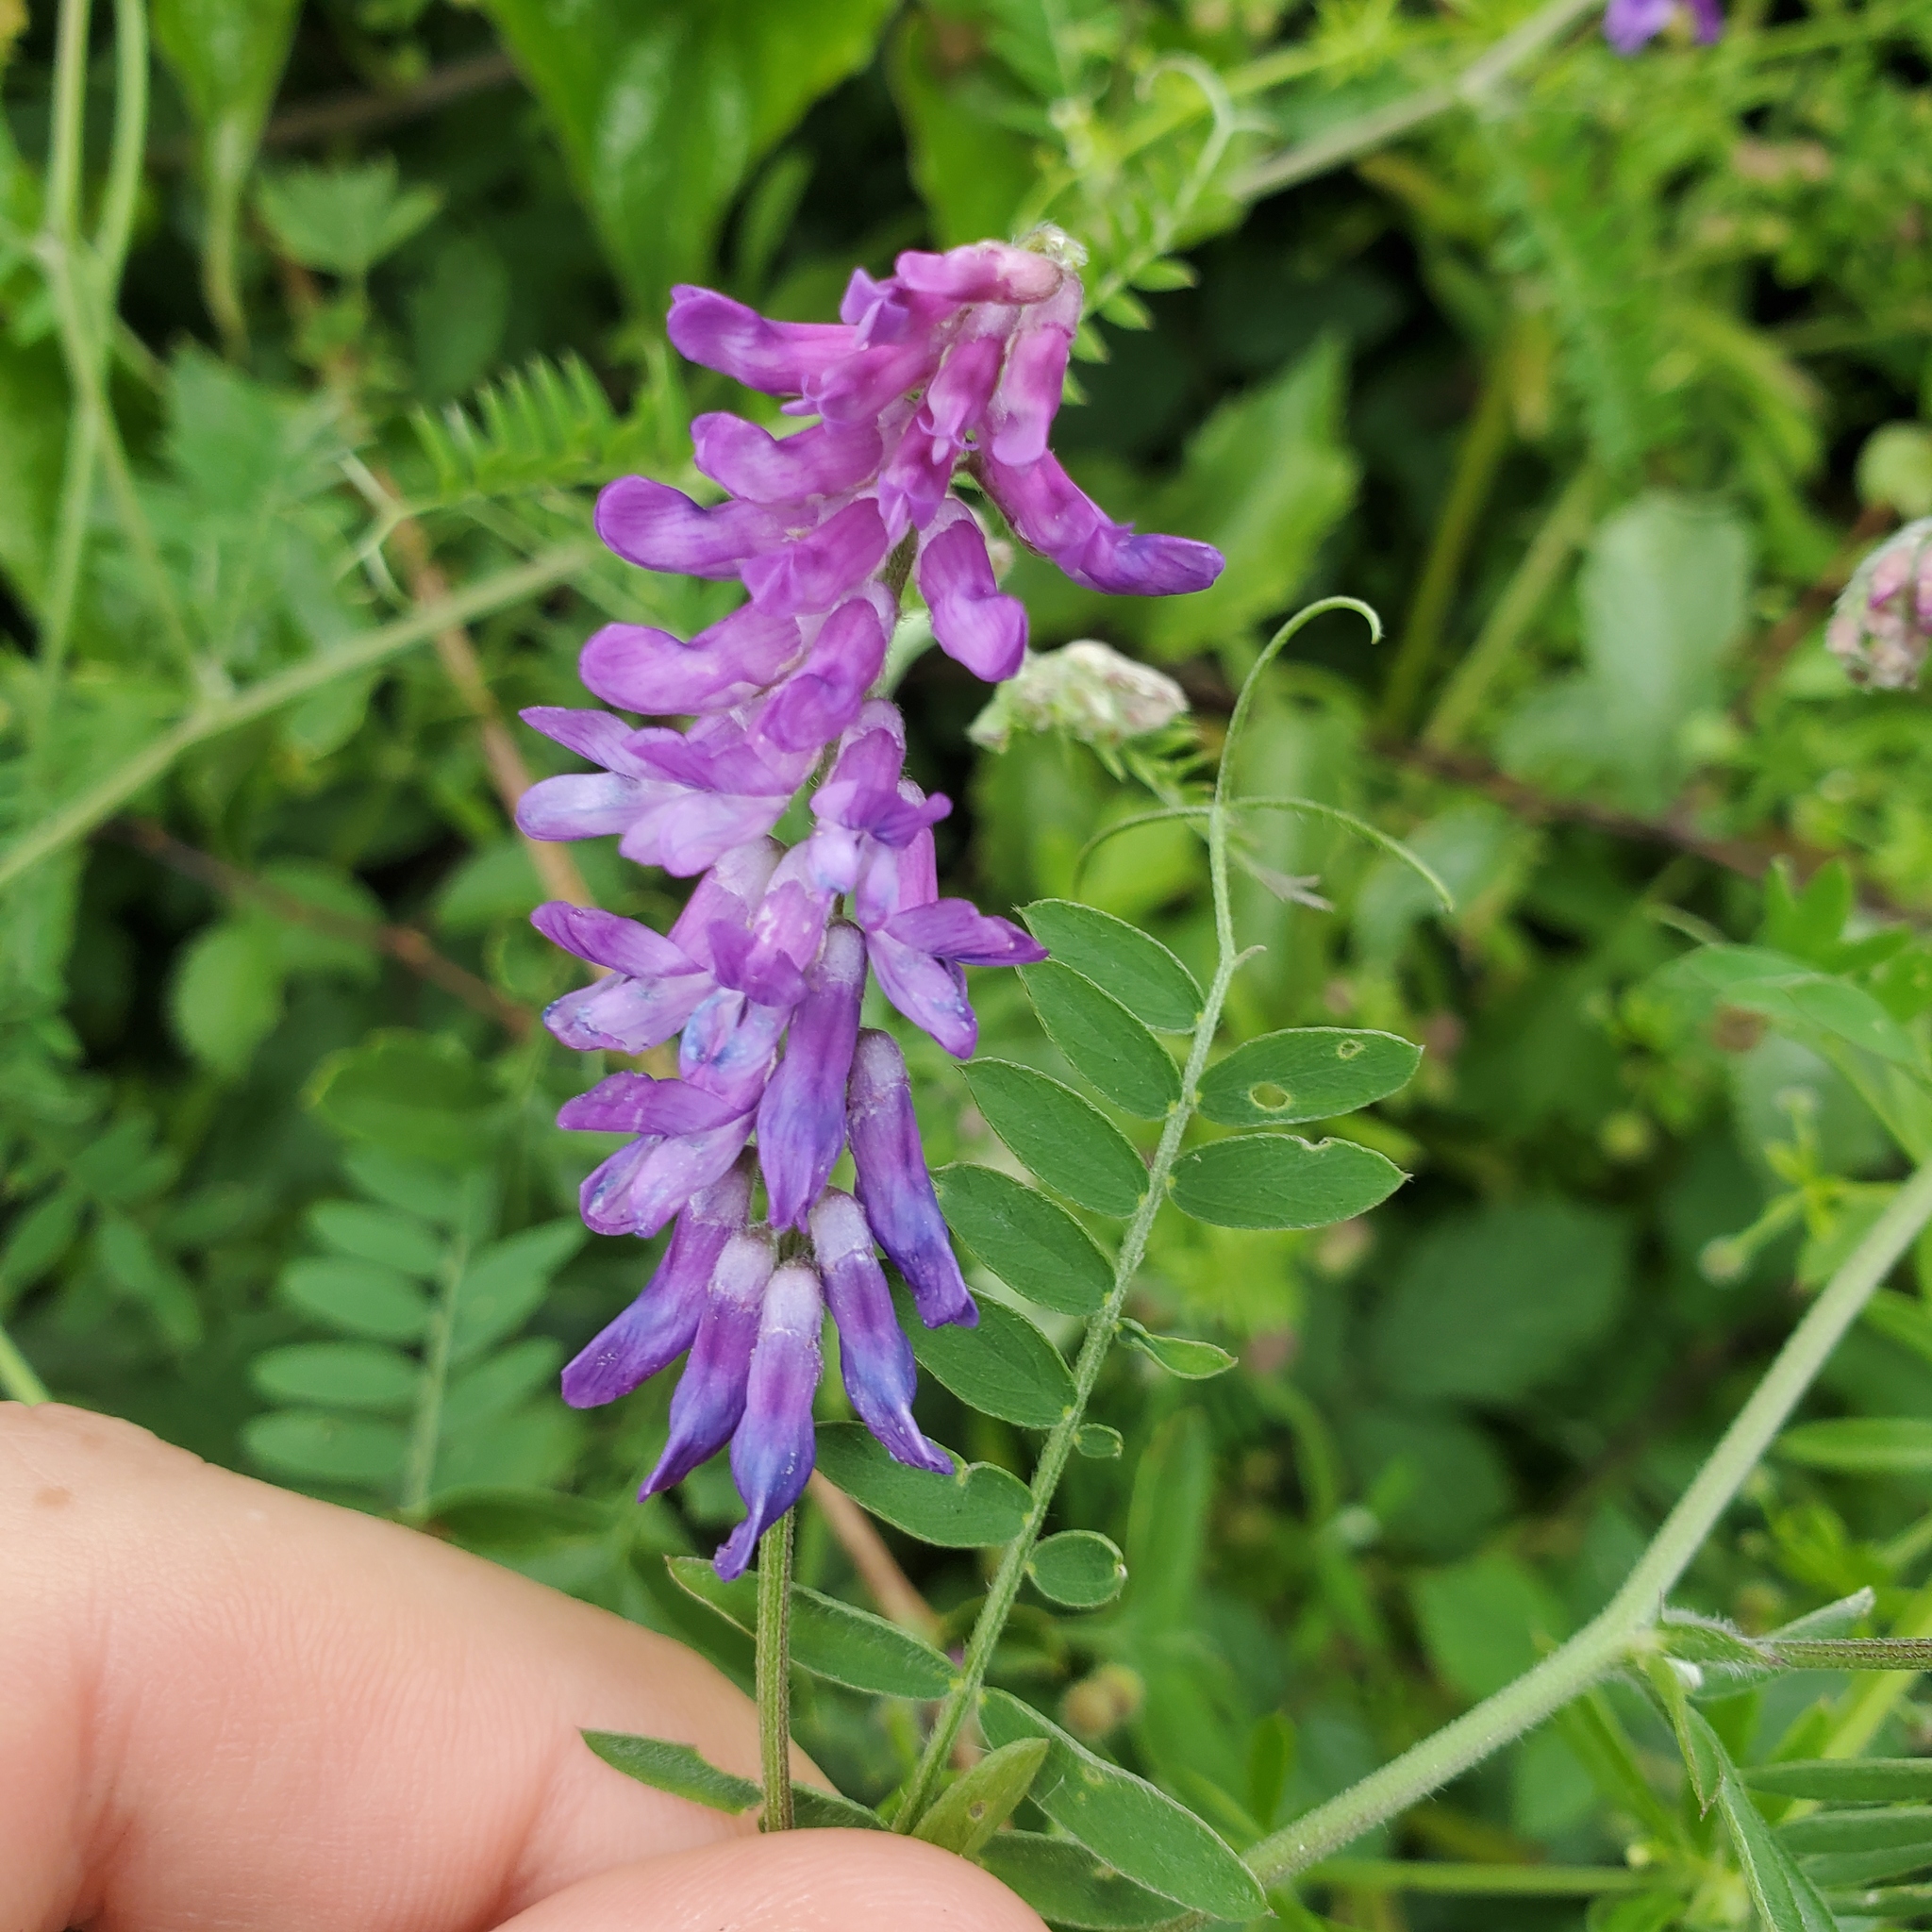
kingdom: Plantae
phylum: Tracheophyta
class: Magnoliopsida
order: Fabales
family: Fabaceae
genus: Vicia
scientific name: Vicia cracca
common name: Bird vetch
